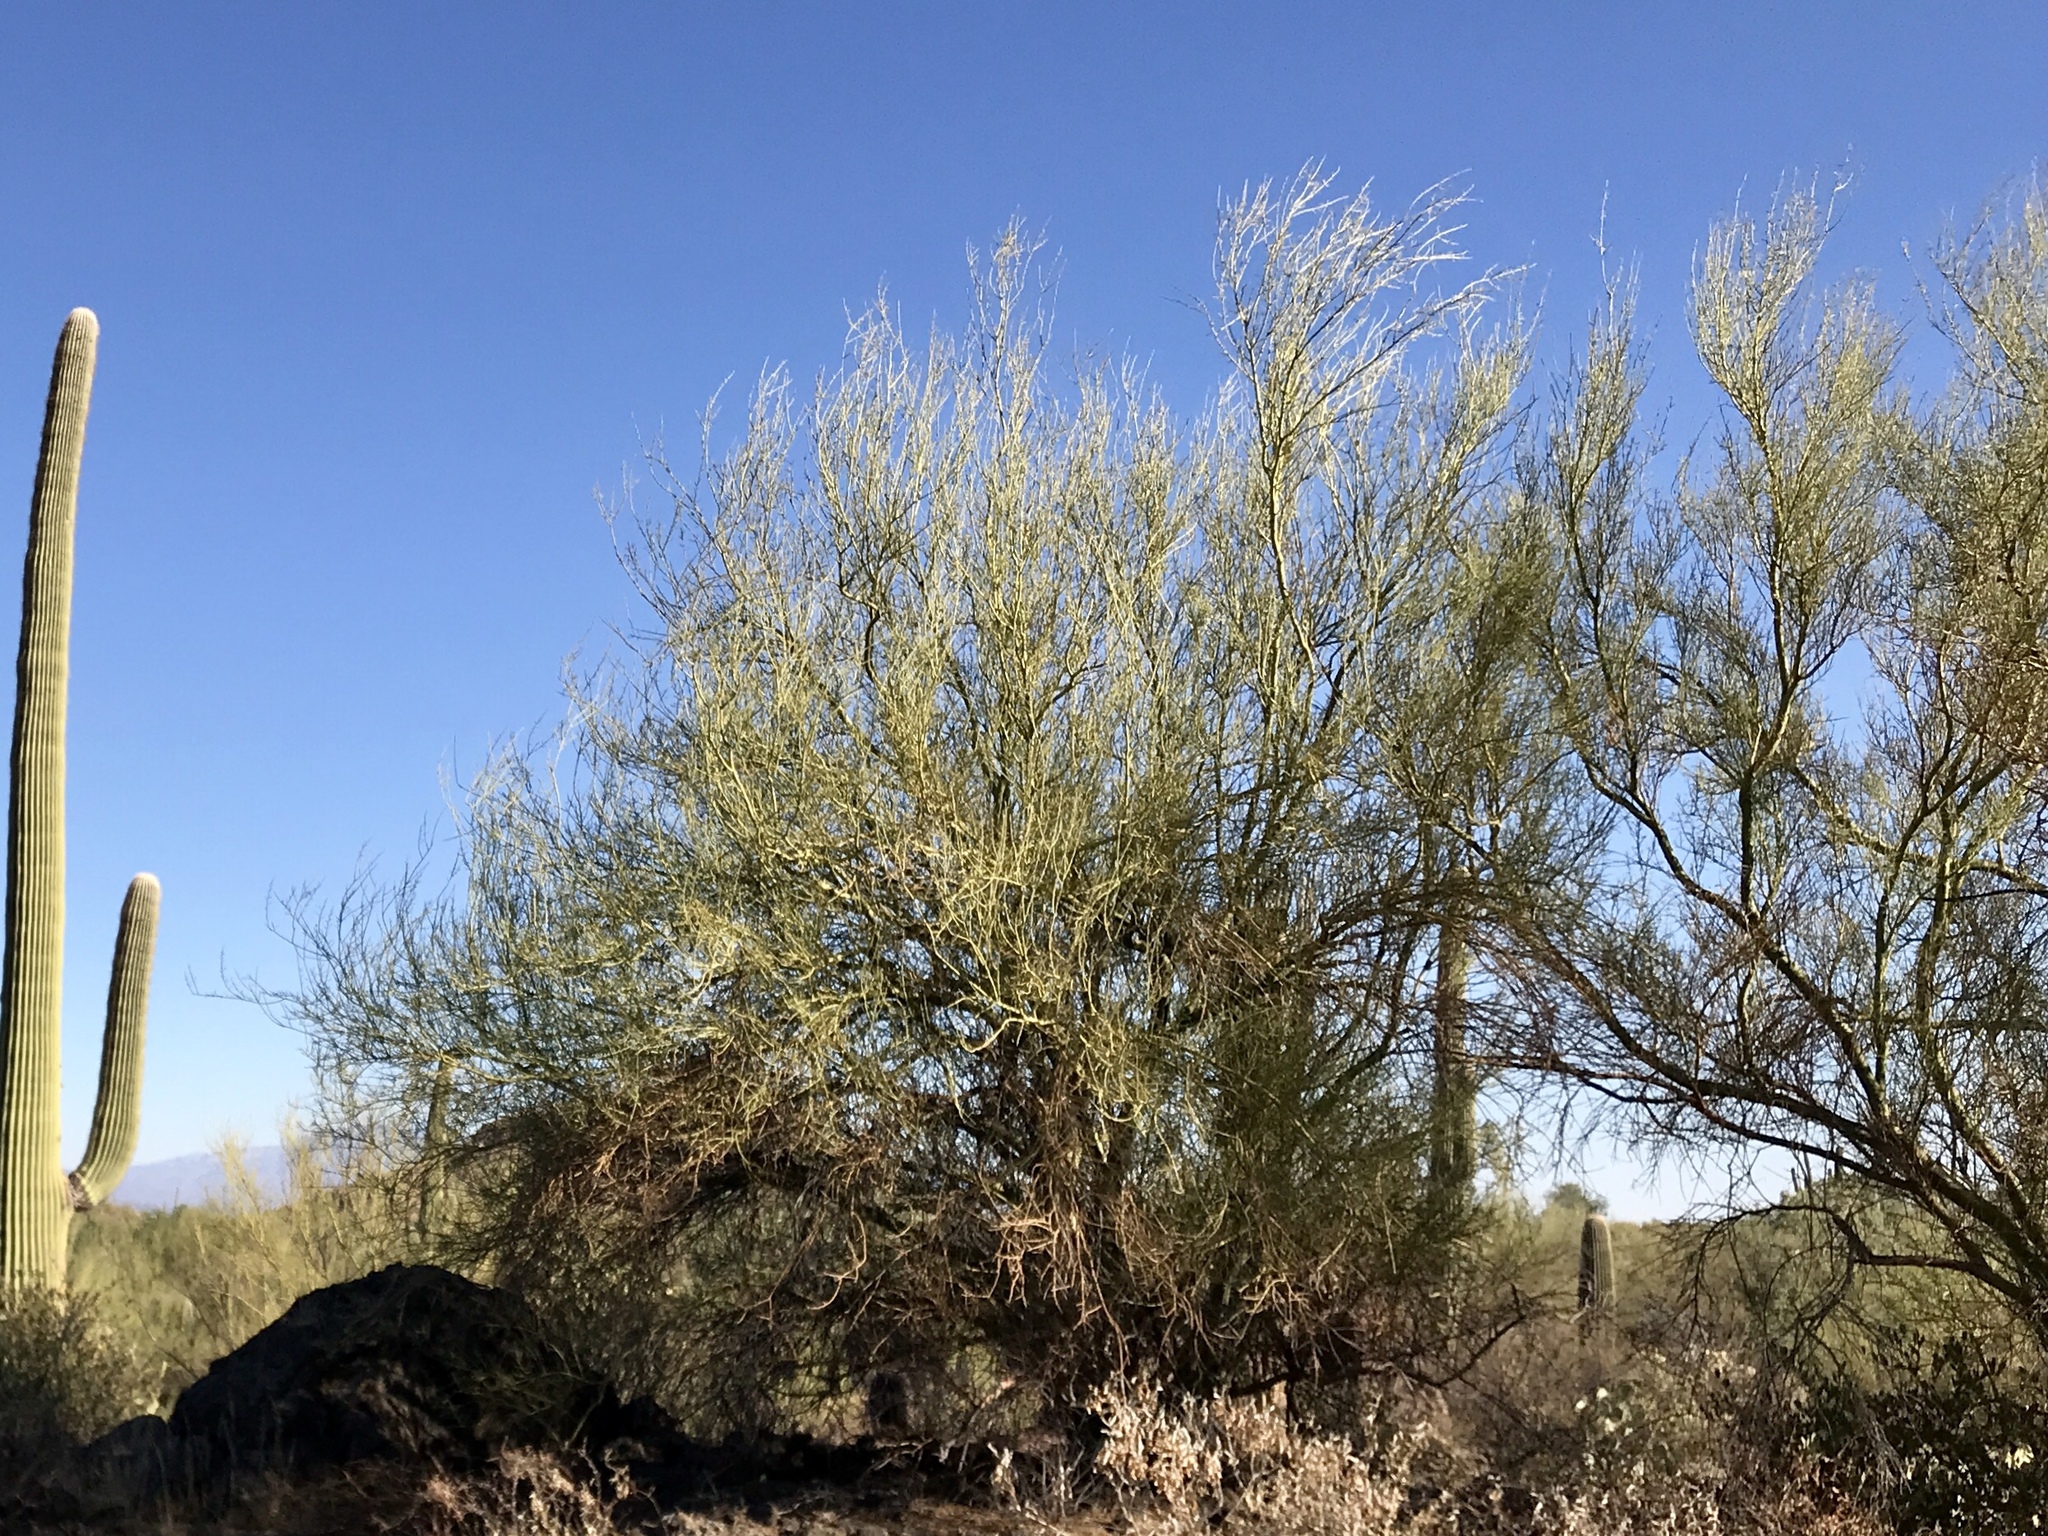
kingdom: Plantae
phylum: Tracheophyta
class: Magnoliopsida
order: Fabales
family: Fabaceae
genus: Parkinsonia
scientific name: Parkinsonia microphylla
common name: Yellow paloverde
